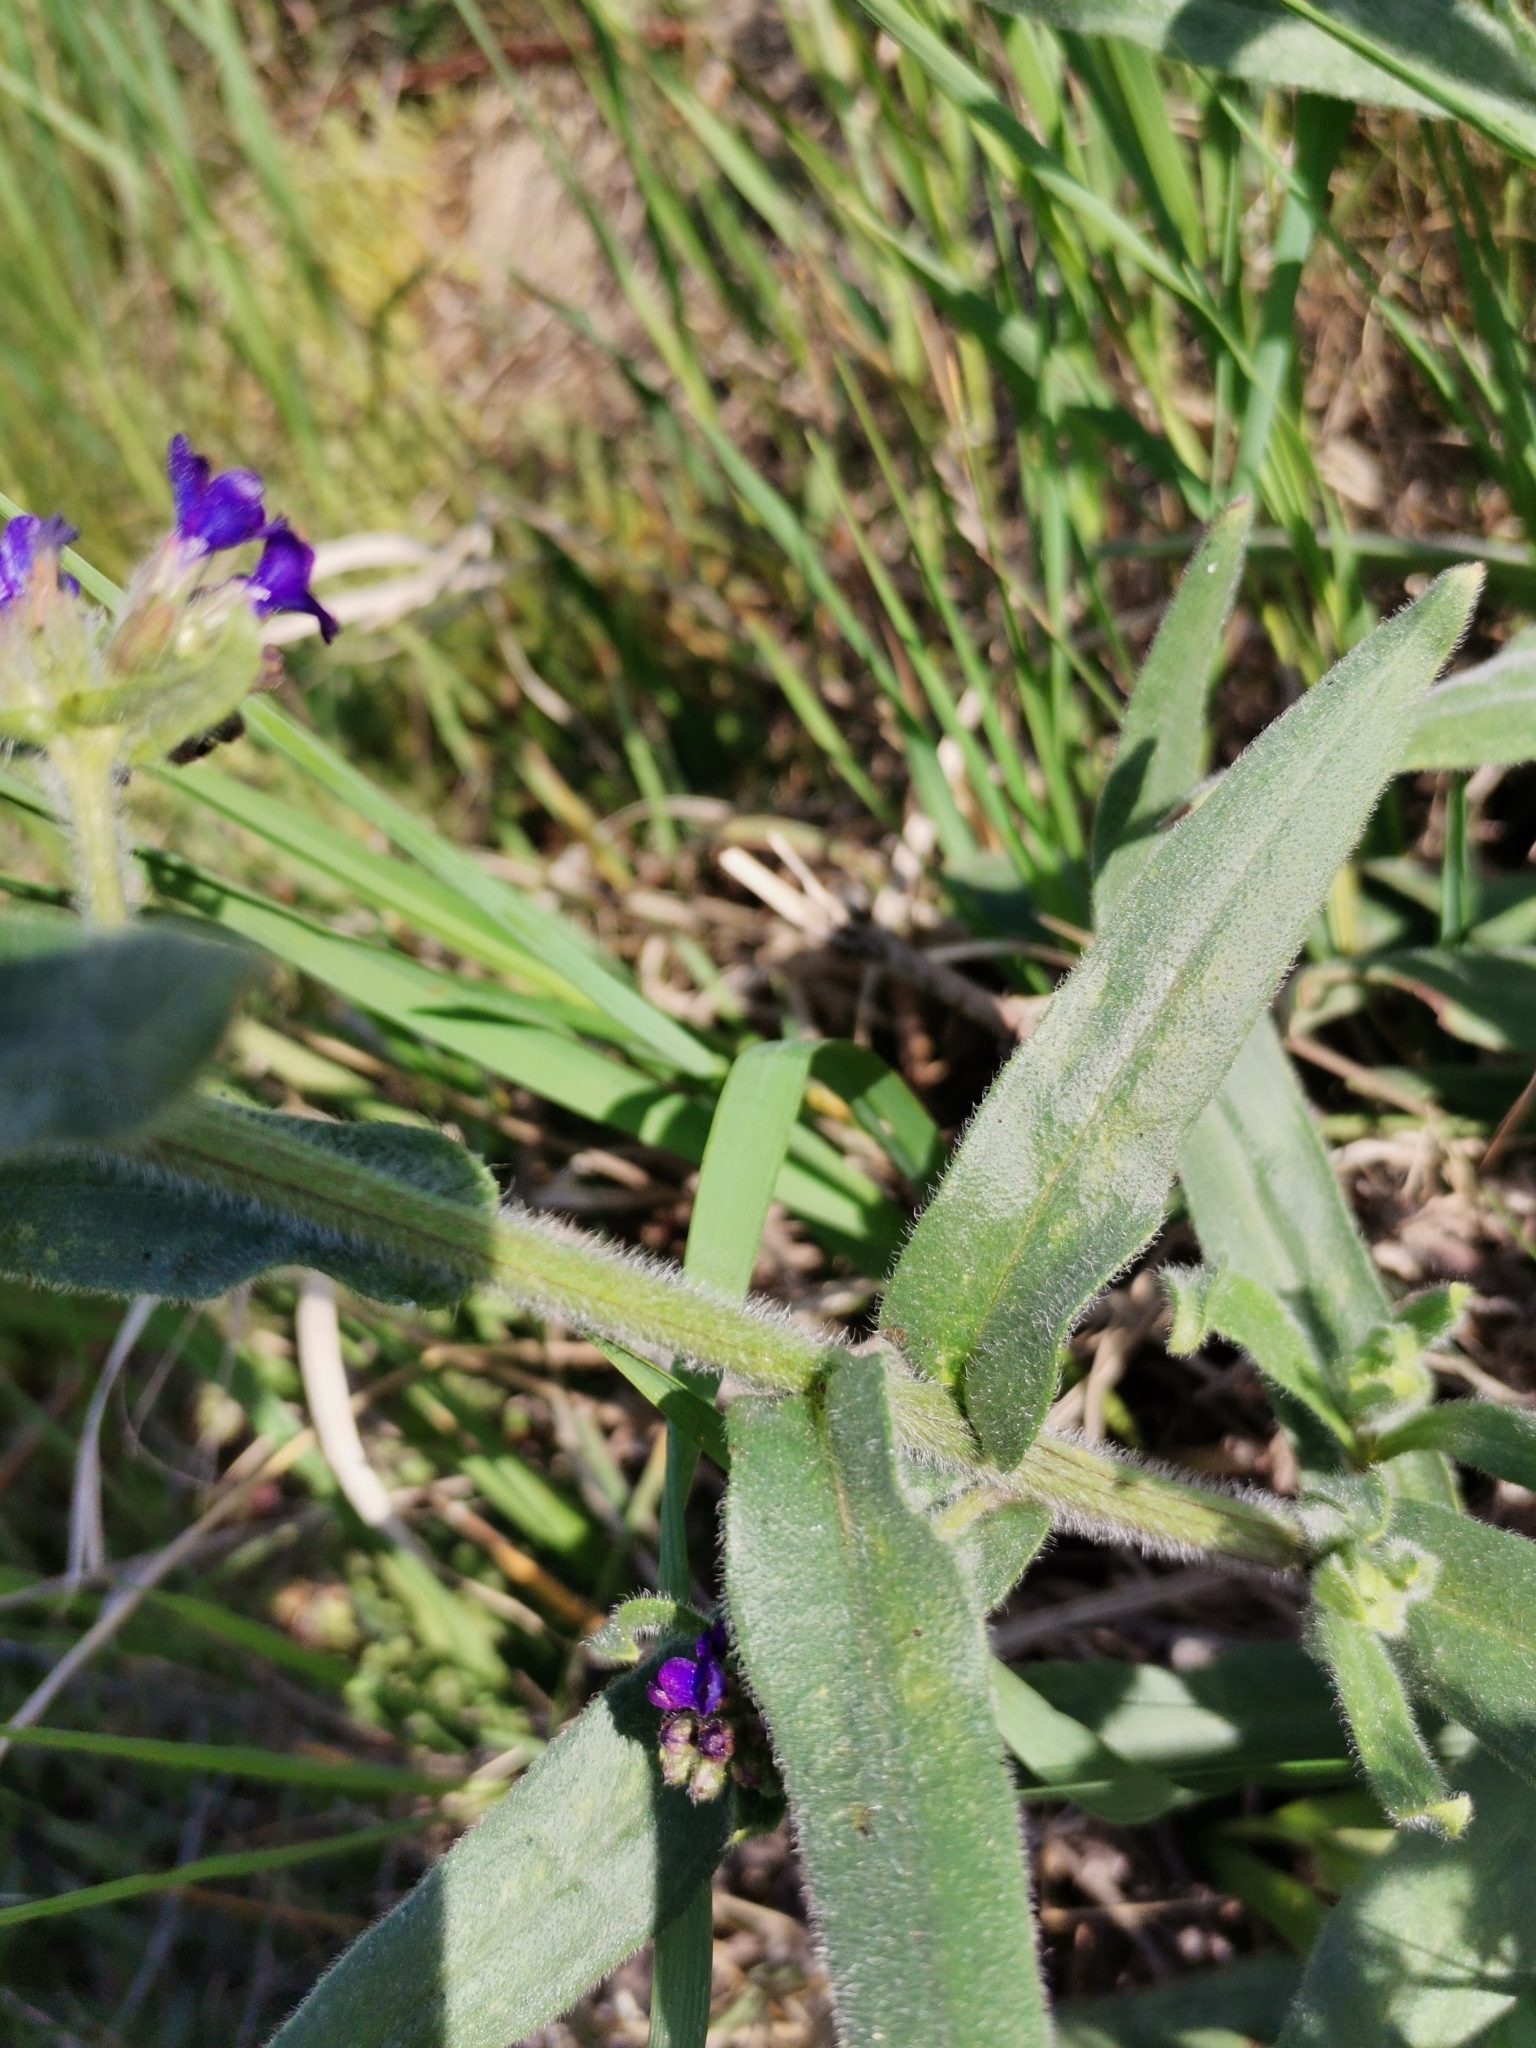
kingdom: Plantae
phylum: Tracheophyta
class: Magnoliopsida
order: Boraginales
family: Boraginaceae
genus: Anchusa
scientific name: Anchusa officinalis
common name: Alkanet
